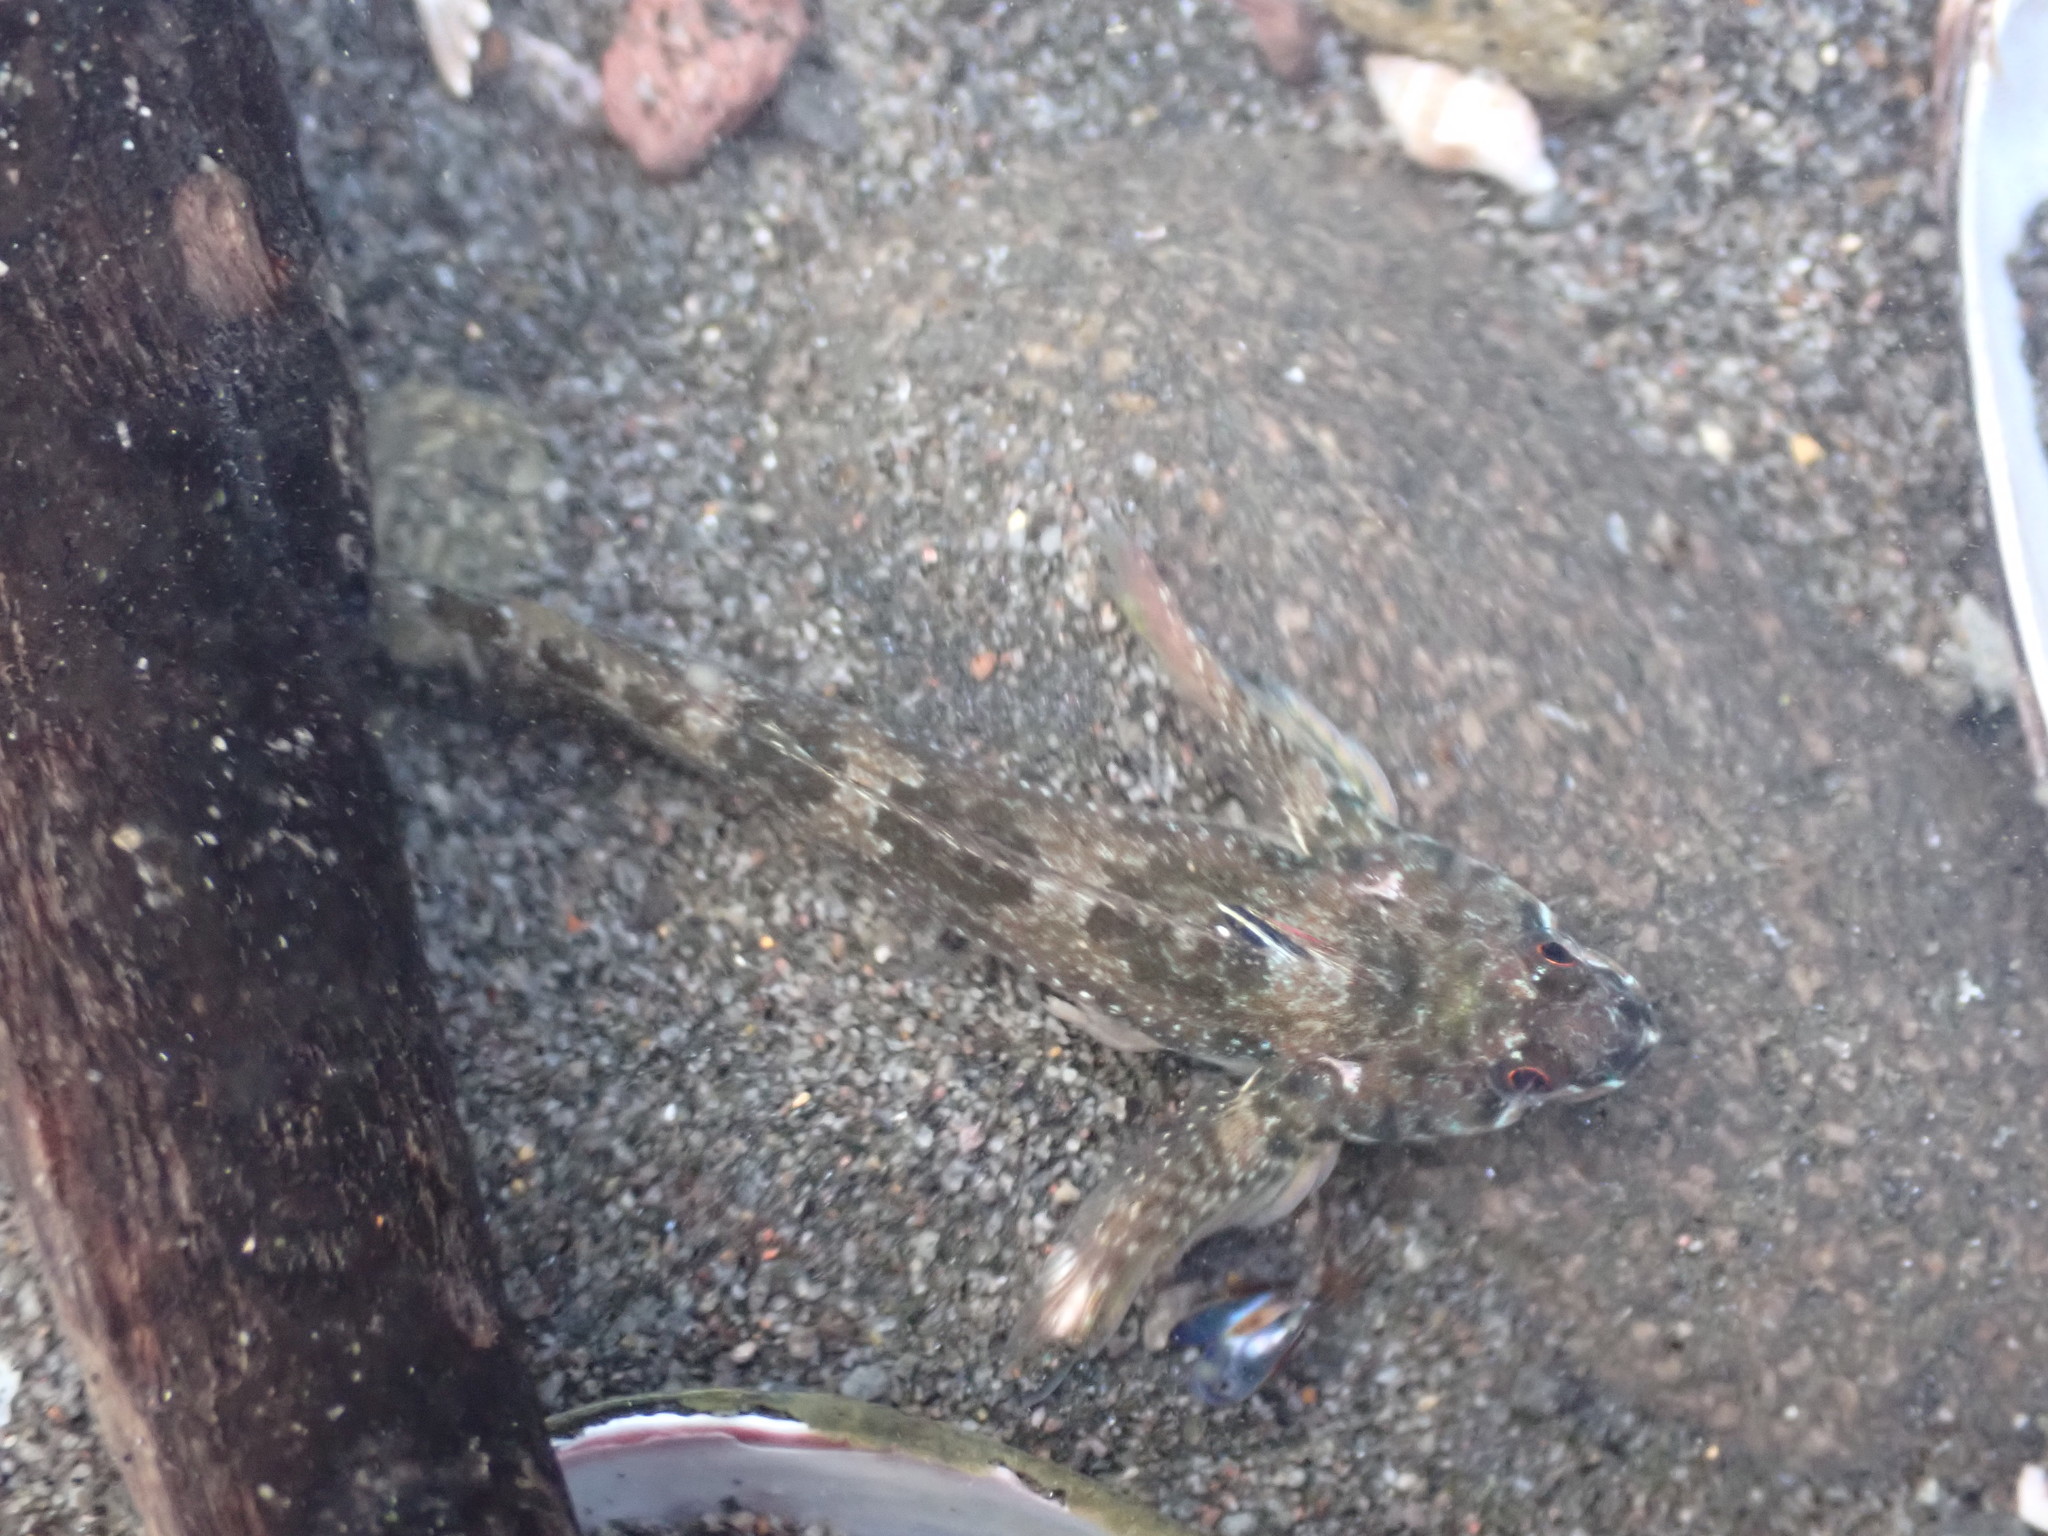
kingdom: Animalia
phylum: Chordata
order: Perciformes
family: Tripterygiidae
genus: Bellapiscis
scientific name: Bellapiscis medius
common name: Twister
